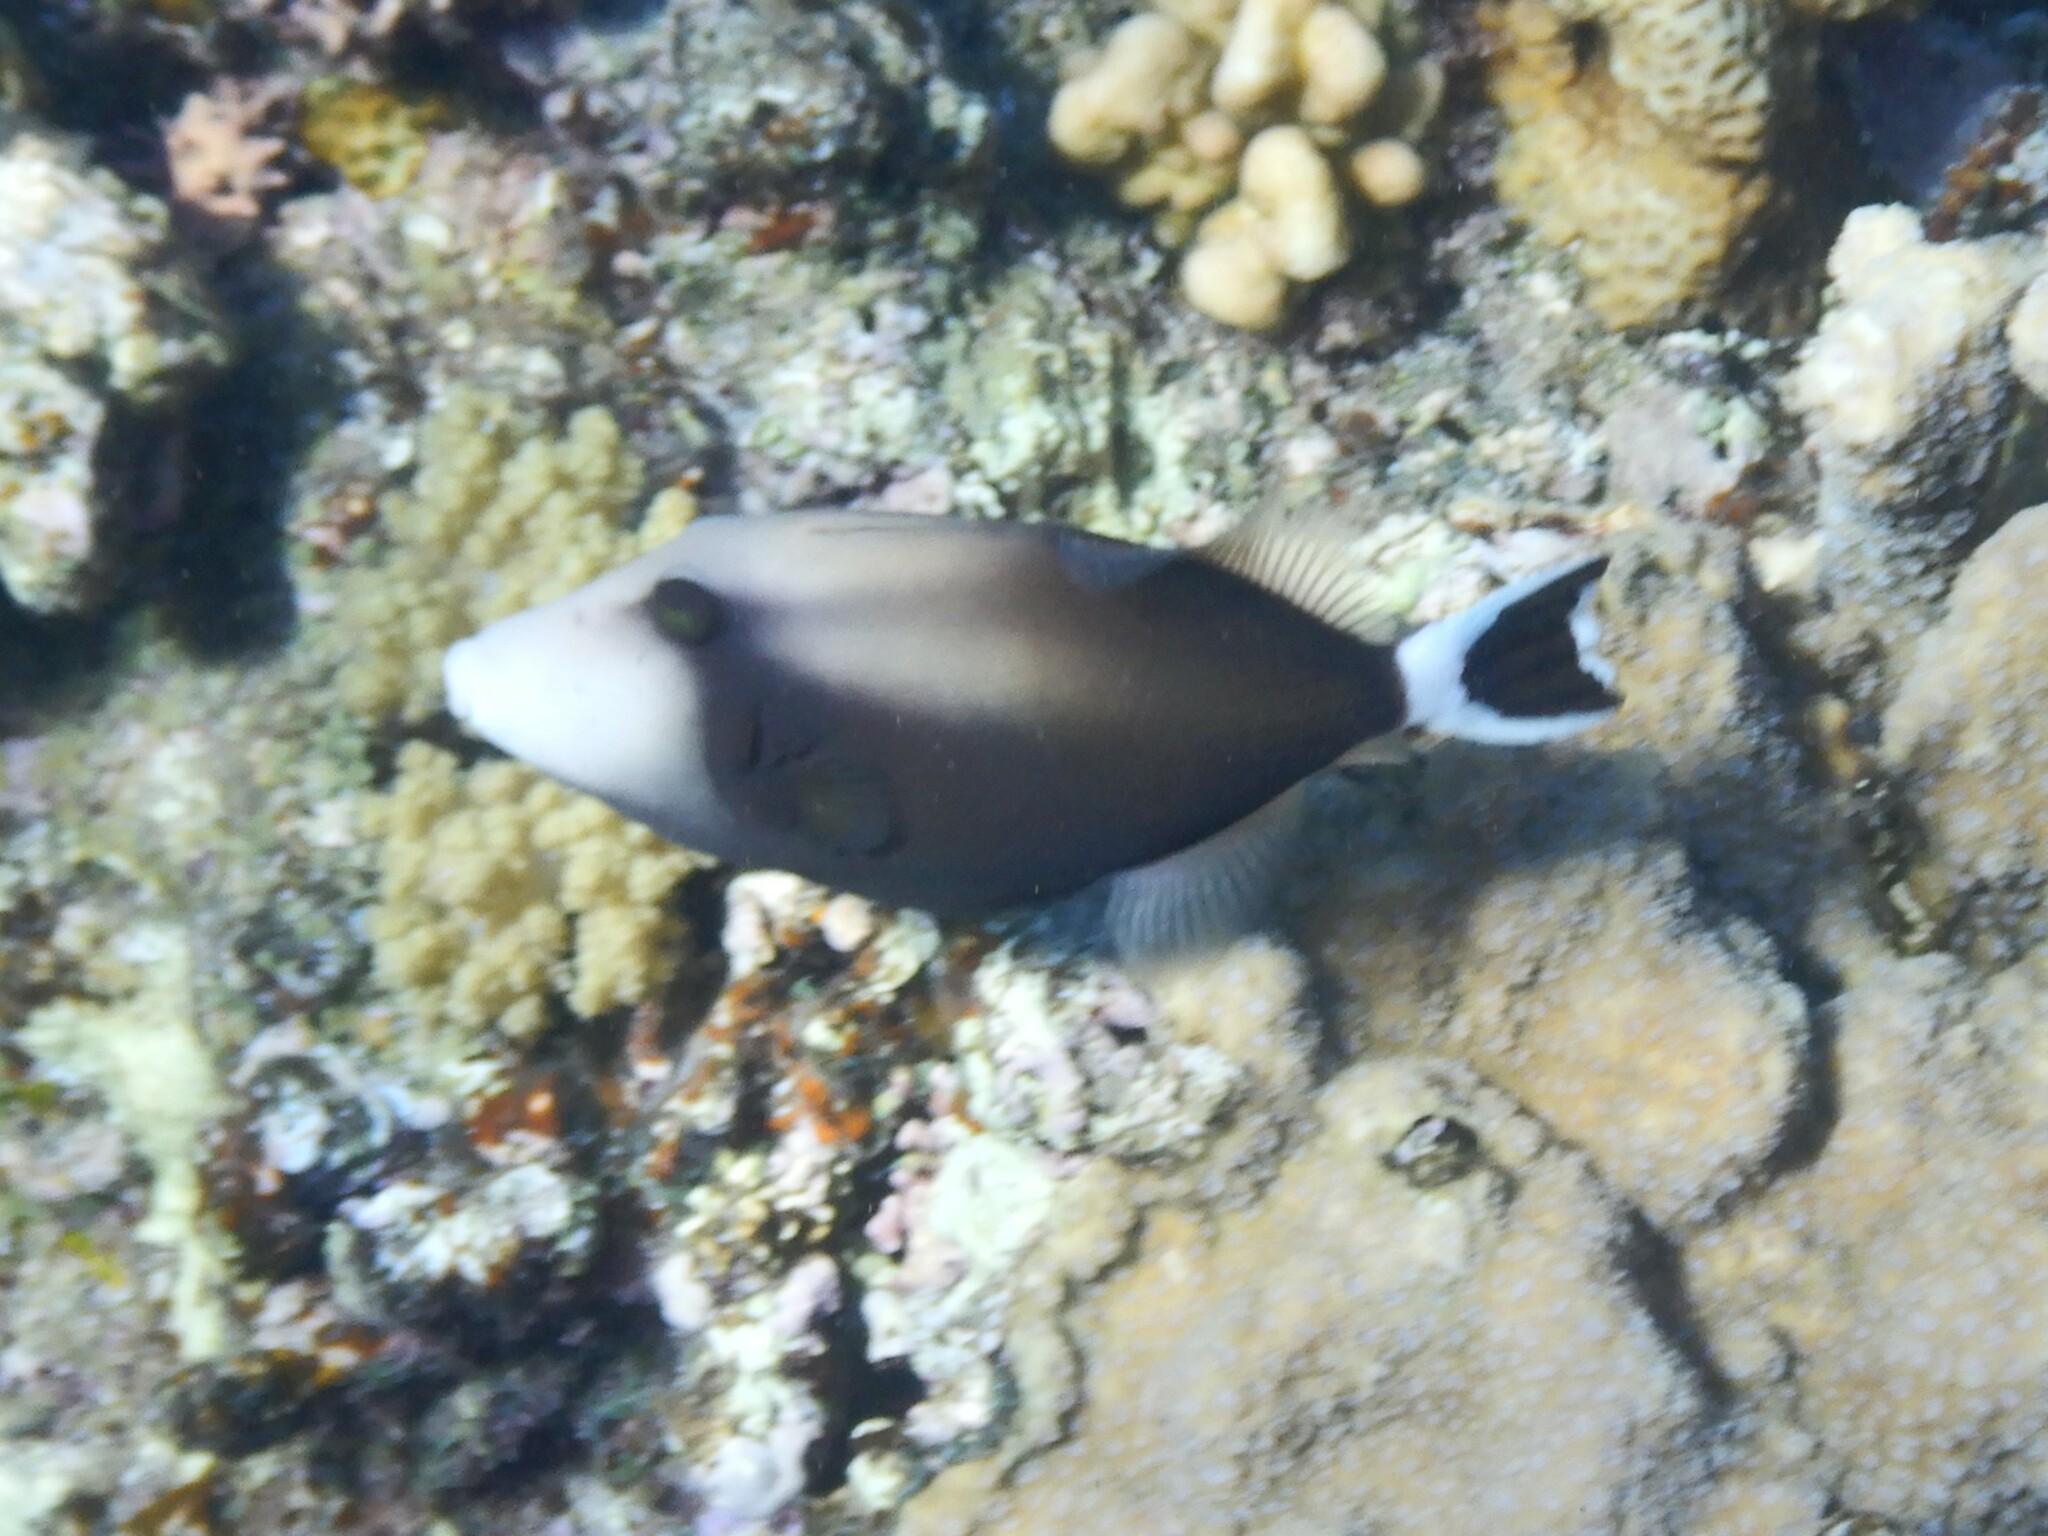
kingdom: Animalia
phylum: Chordata
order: Tetraodontiformes
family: Balistidae
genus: Sufflamen
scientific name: Sufflamen albicaudatum
